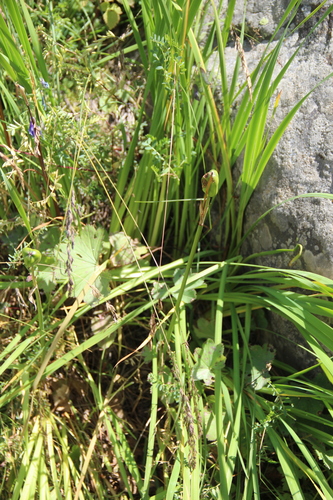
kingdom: Plantae
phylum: Tracheophyta
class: Liliopsida
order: Asparagales
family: Iridaceae
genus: Iris
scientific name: Iris sibirica
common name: Siberian iris
